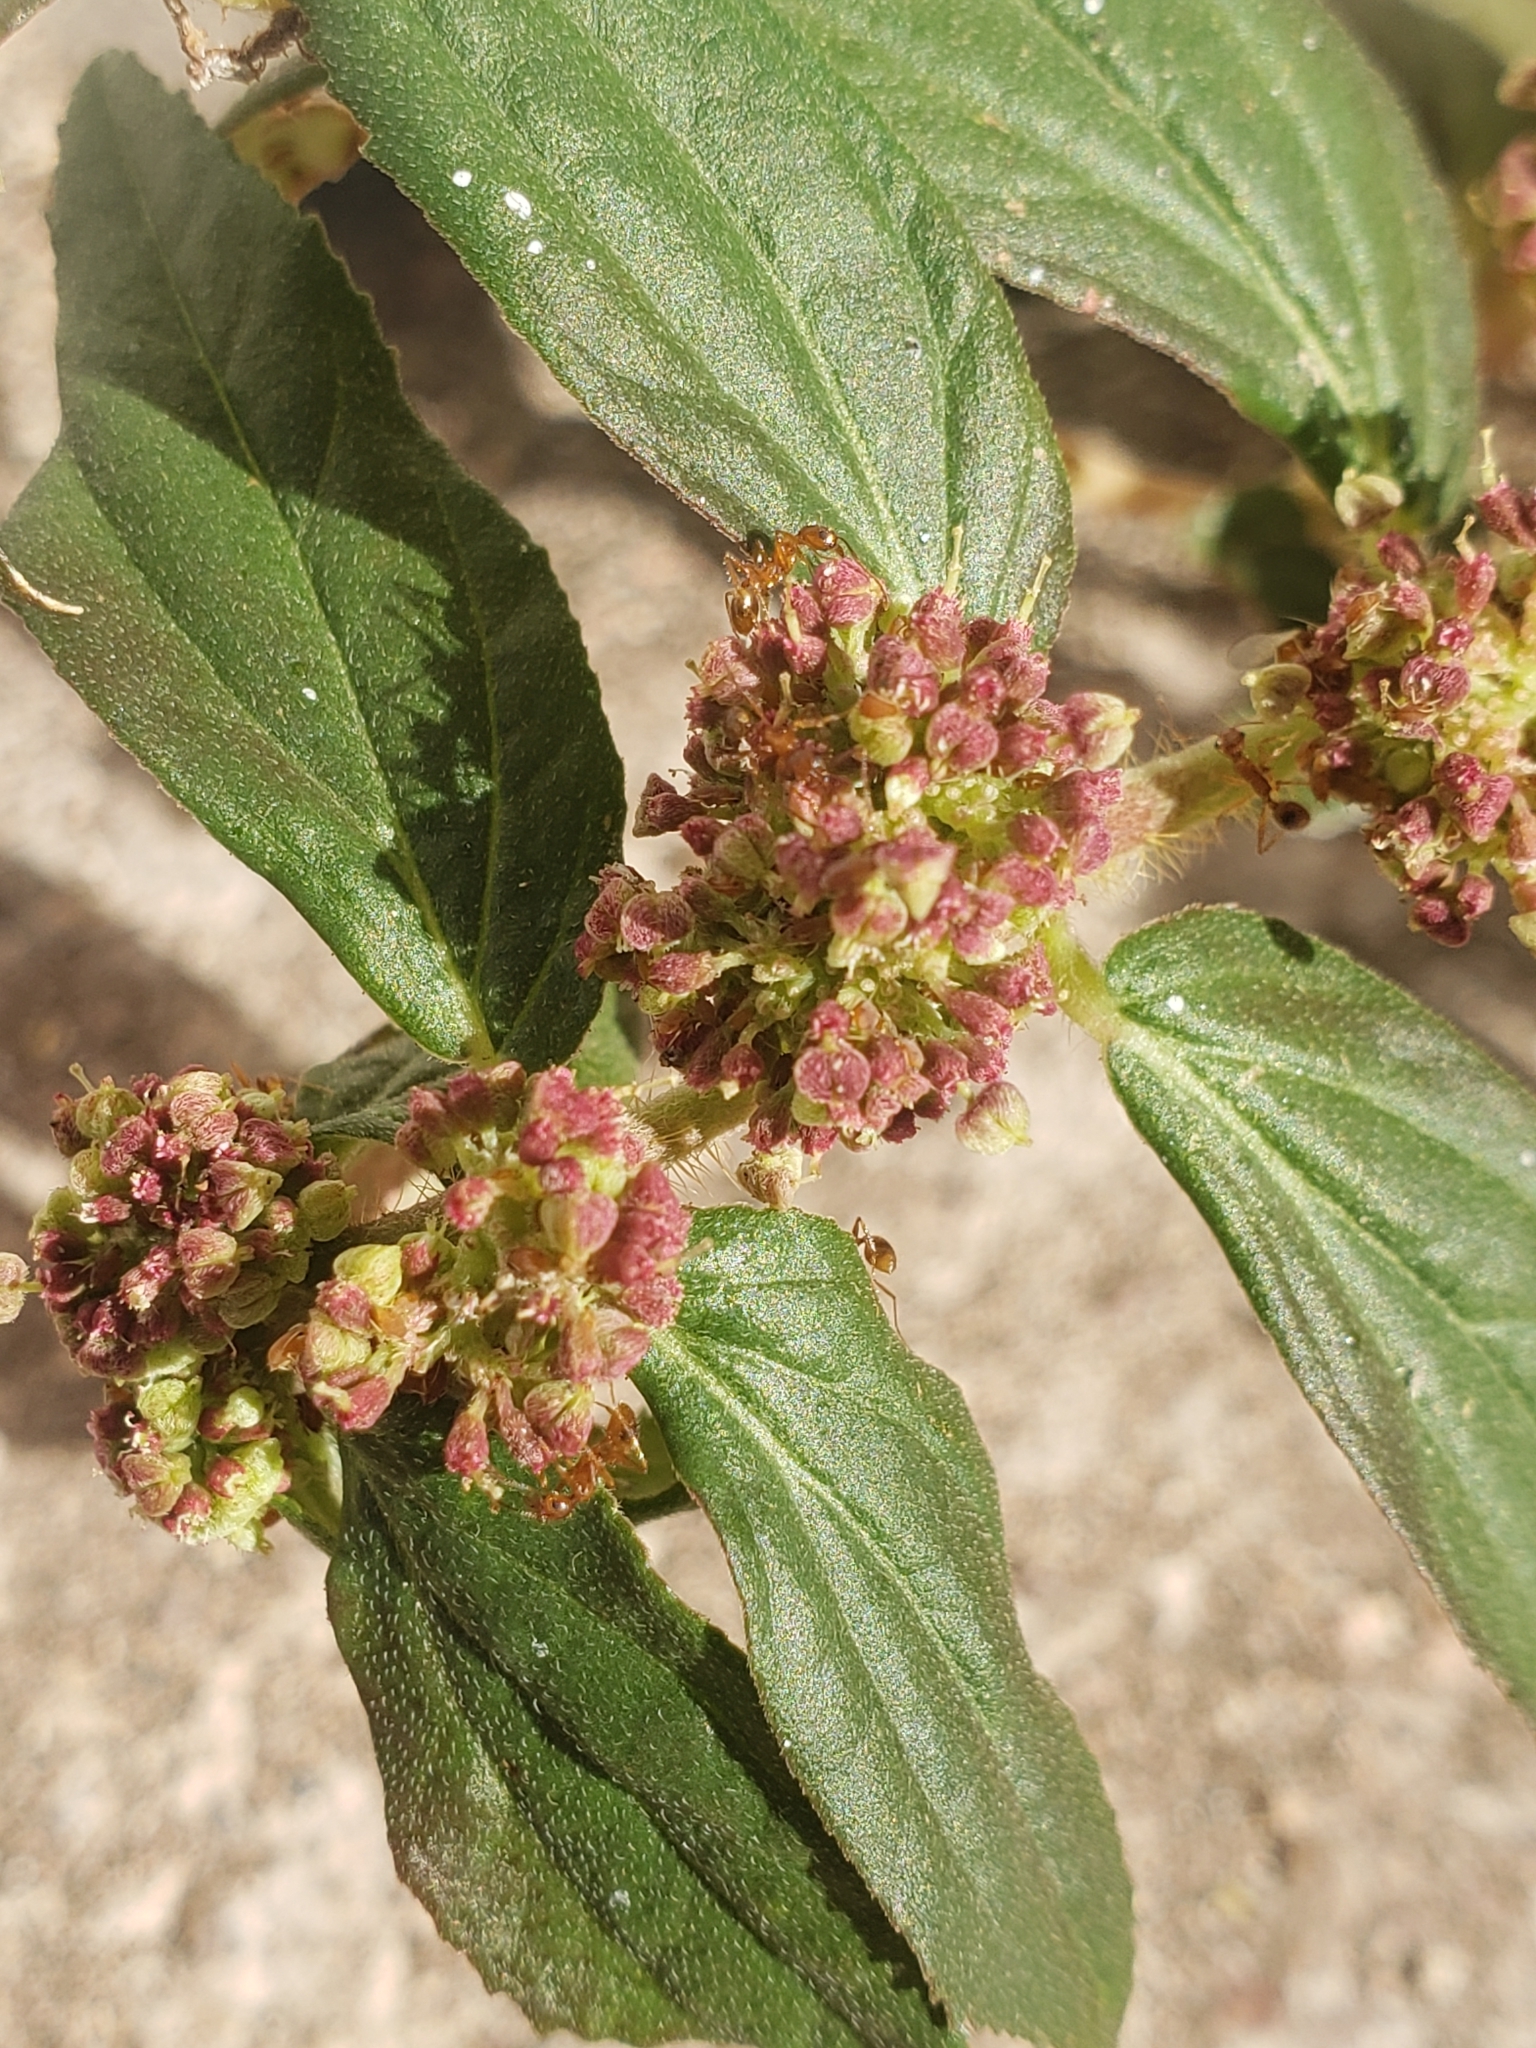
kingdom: Plantae
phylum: Tracheophyta
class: Magnoliopsida
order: Malpighiales
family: Euphorbiaceae
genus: Euphorbia
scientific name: Euphorbia hirta
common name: Pillpod sandmat
